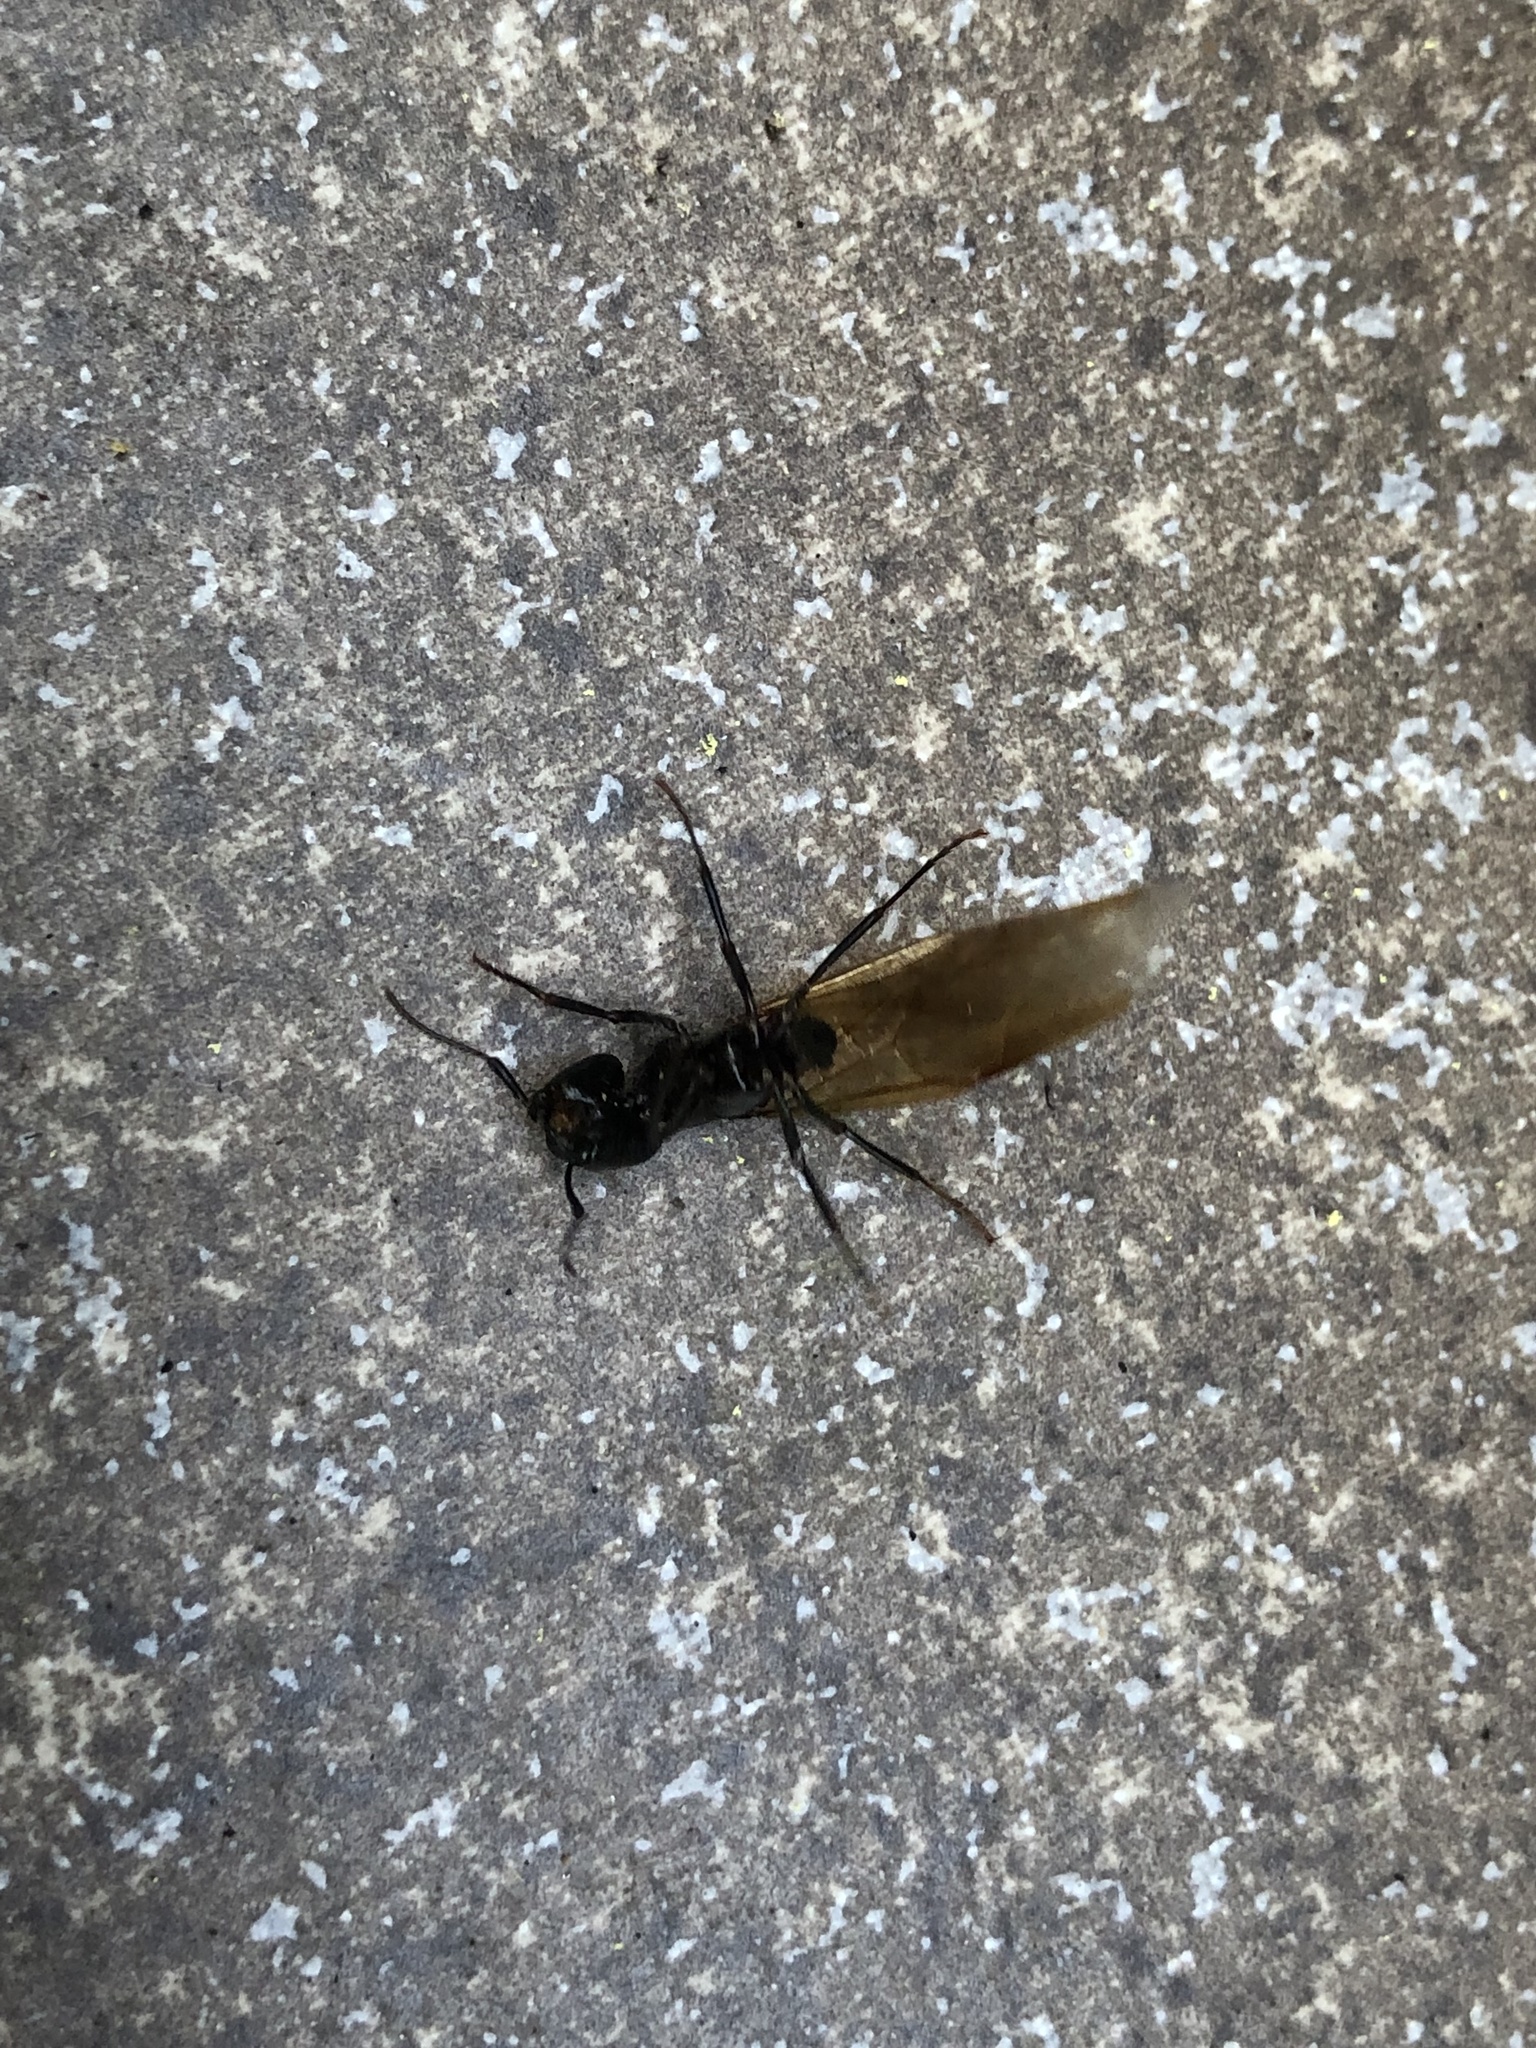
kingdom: Animalia
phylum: Arthropoda
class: Insecta
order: Hymenoptera
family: Formicidae
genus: Camponotus
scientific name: Camponotus pennsylvanicus
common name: Black carpenter ant
